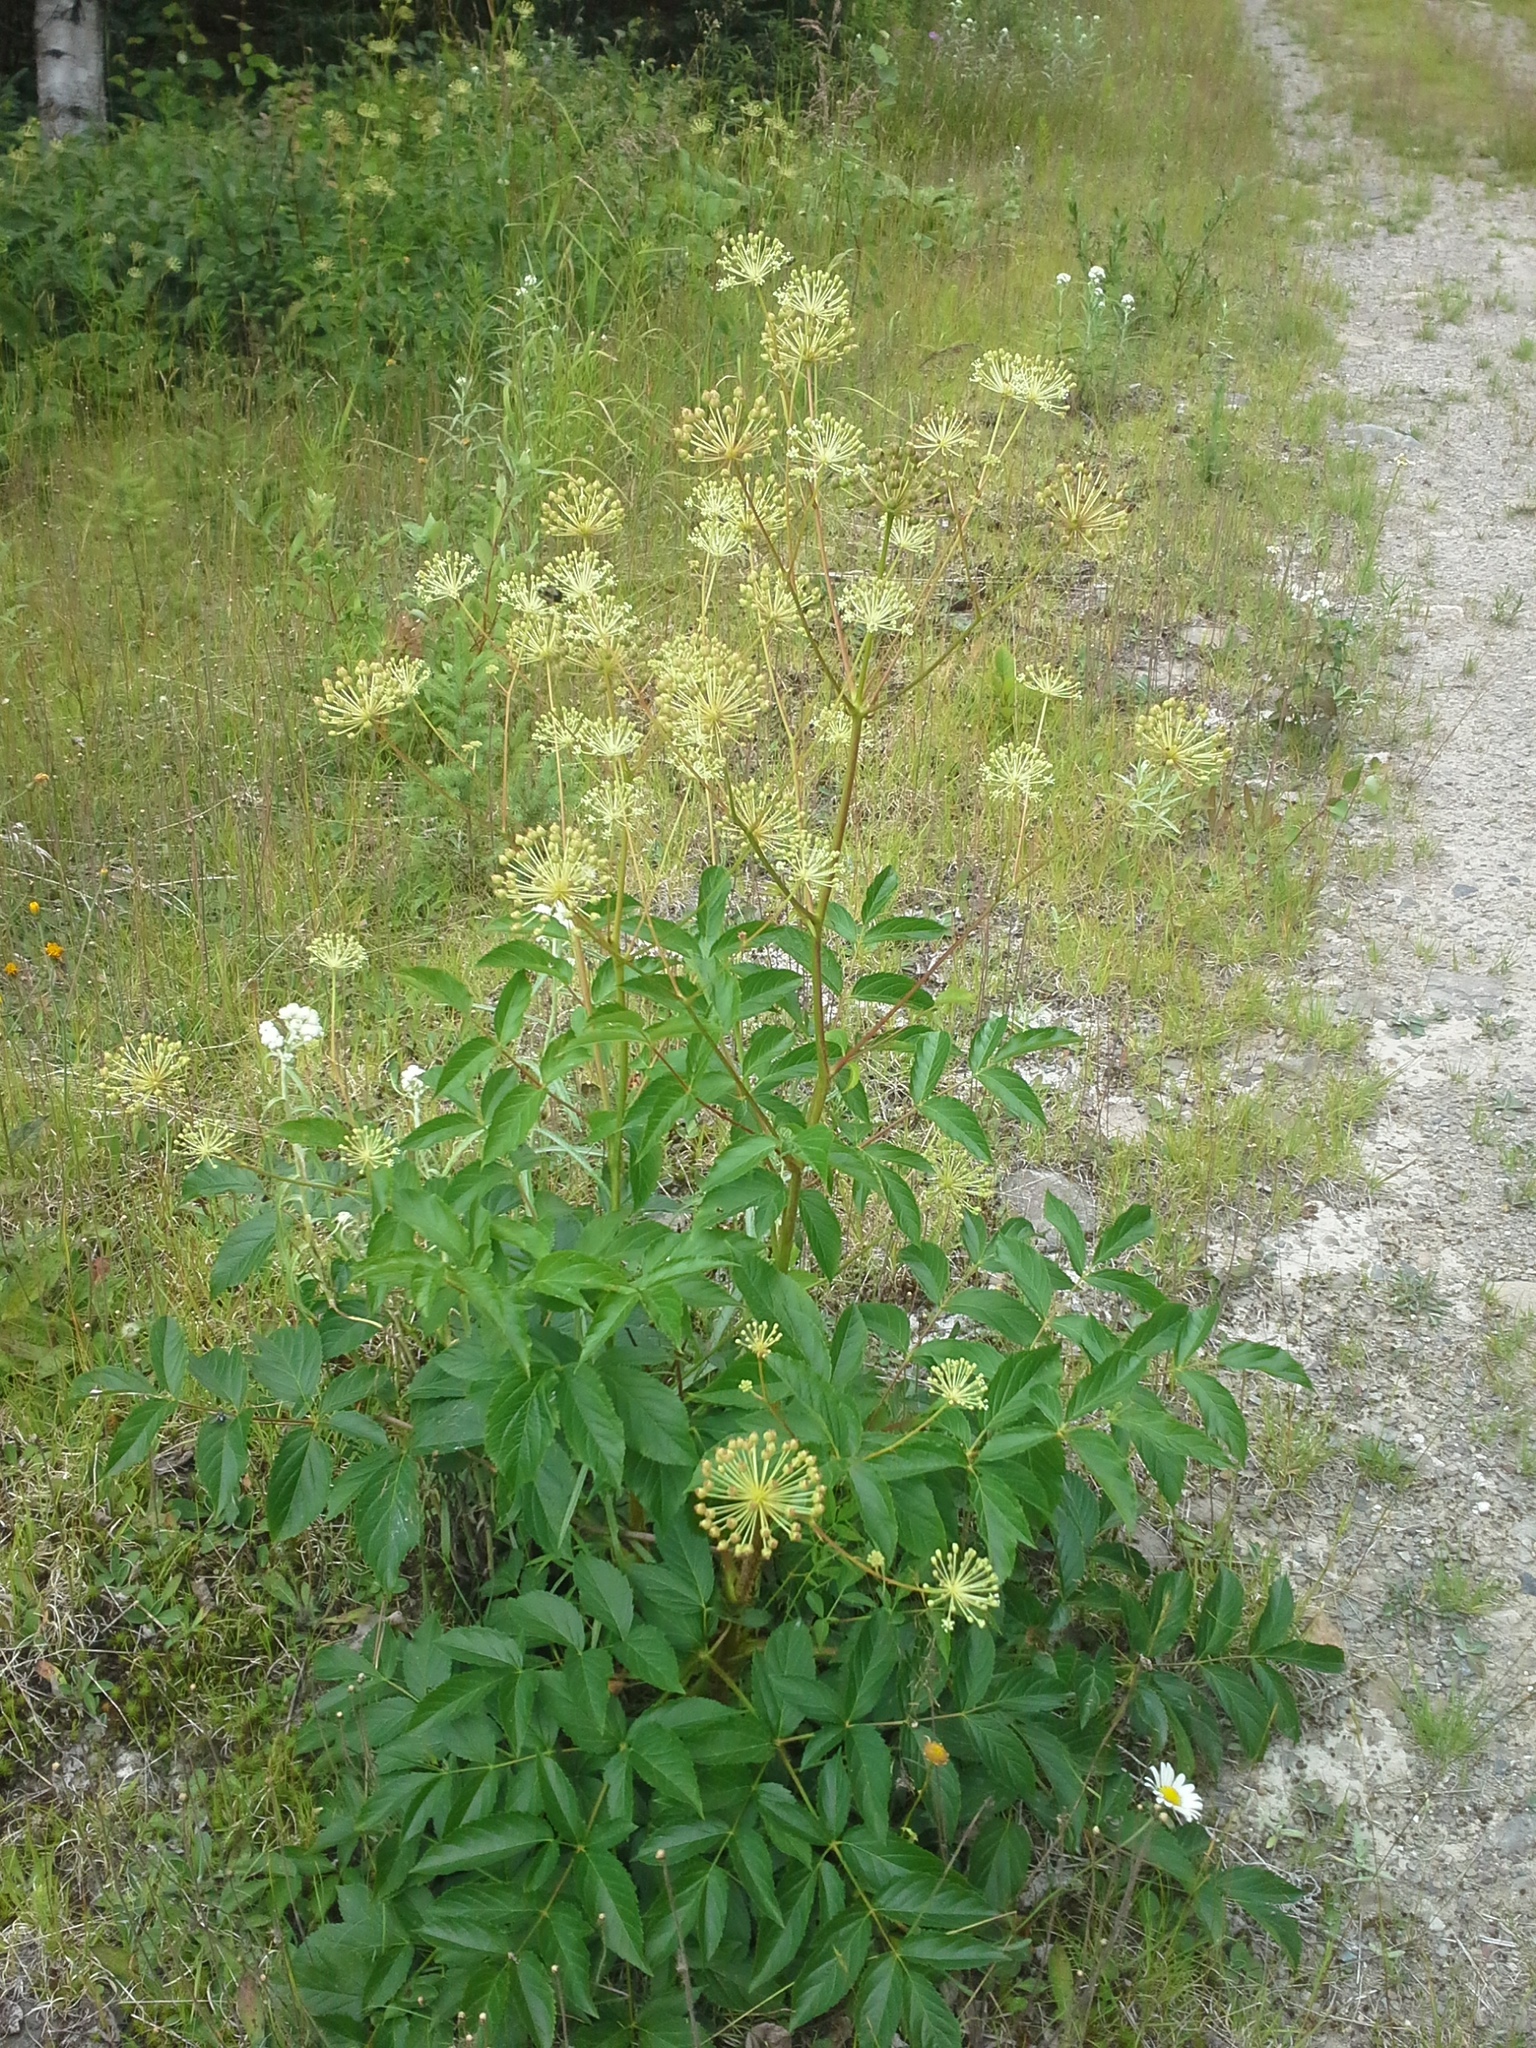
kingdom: Plantae
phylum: Tracheophyta
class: Magnoliopsida
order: Apiales
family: Araliaceae
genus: Aralia
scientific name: Aralia hispida
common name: Bristly sarsaparilla
